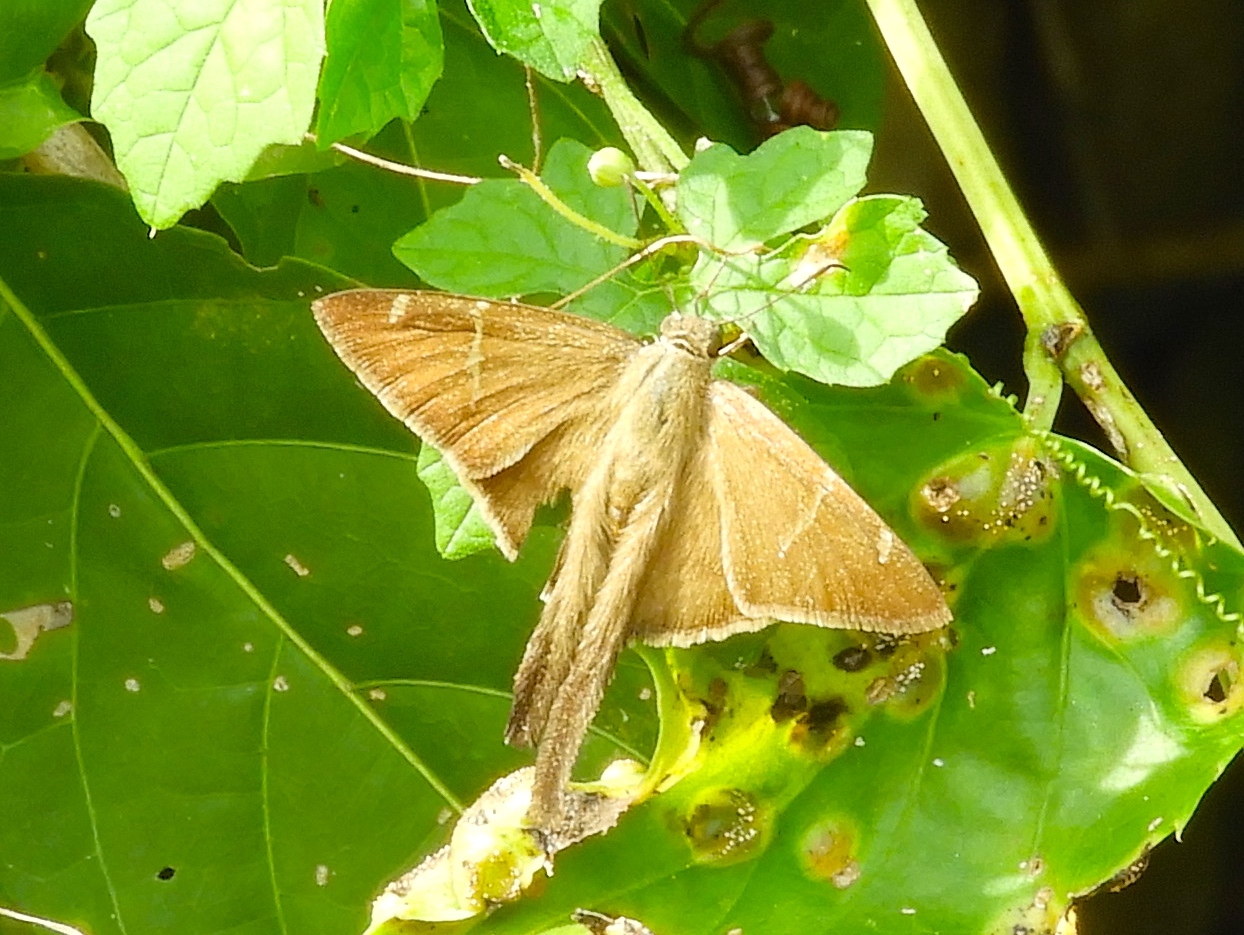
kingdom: Animalia
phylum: Arthropoda
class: Insecta
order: Lepidoptera
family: Hesperiidae
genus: Urbanus
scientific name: Urbanus procne
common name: Brown longtail
